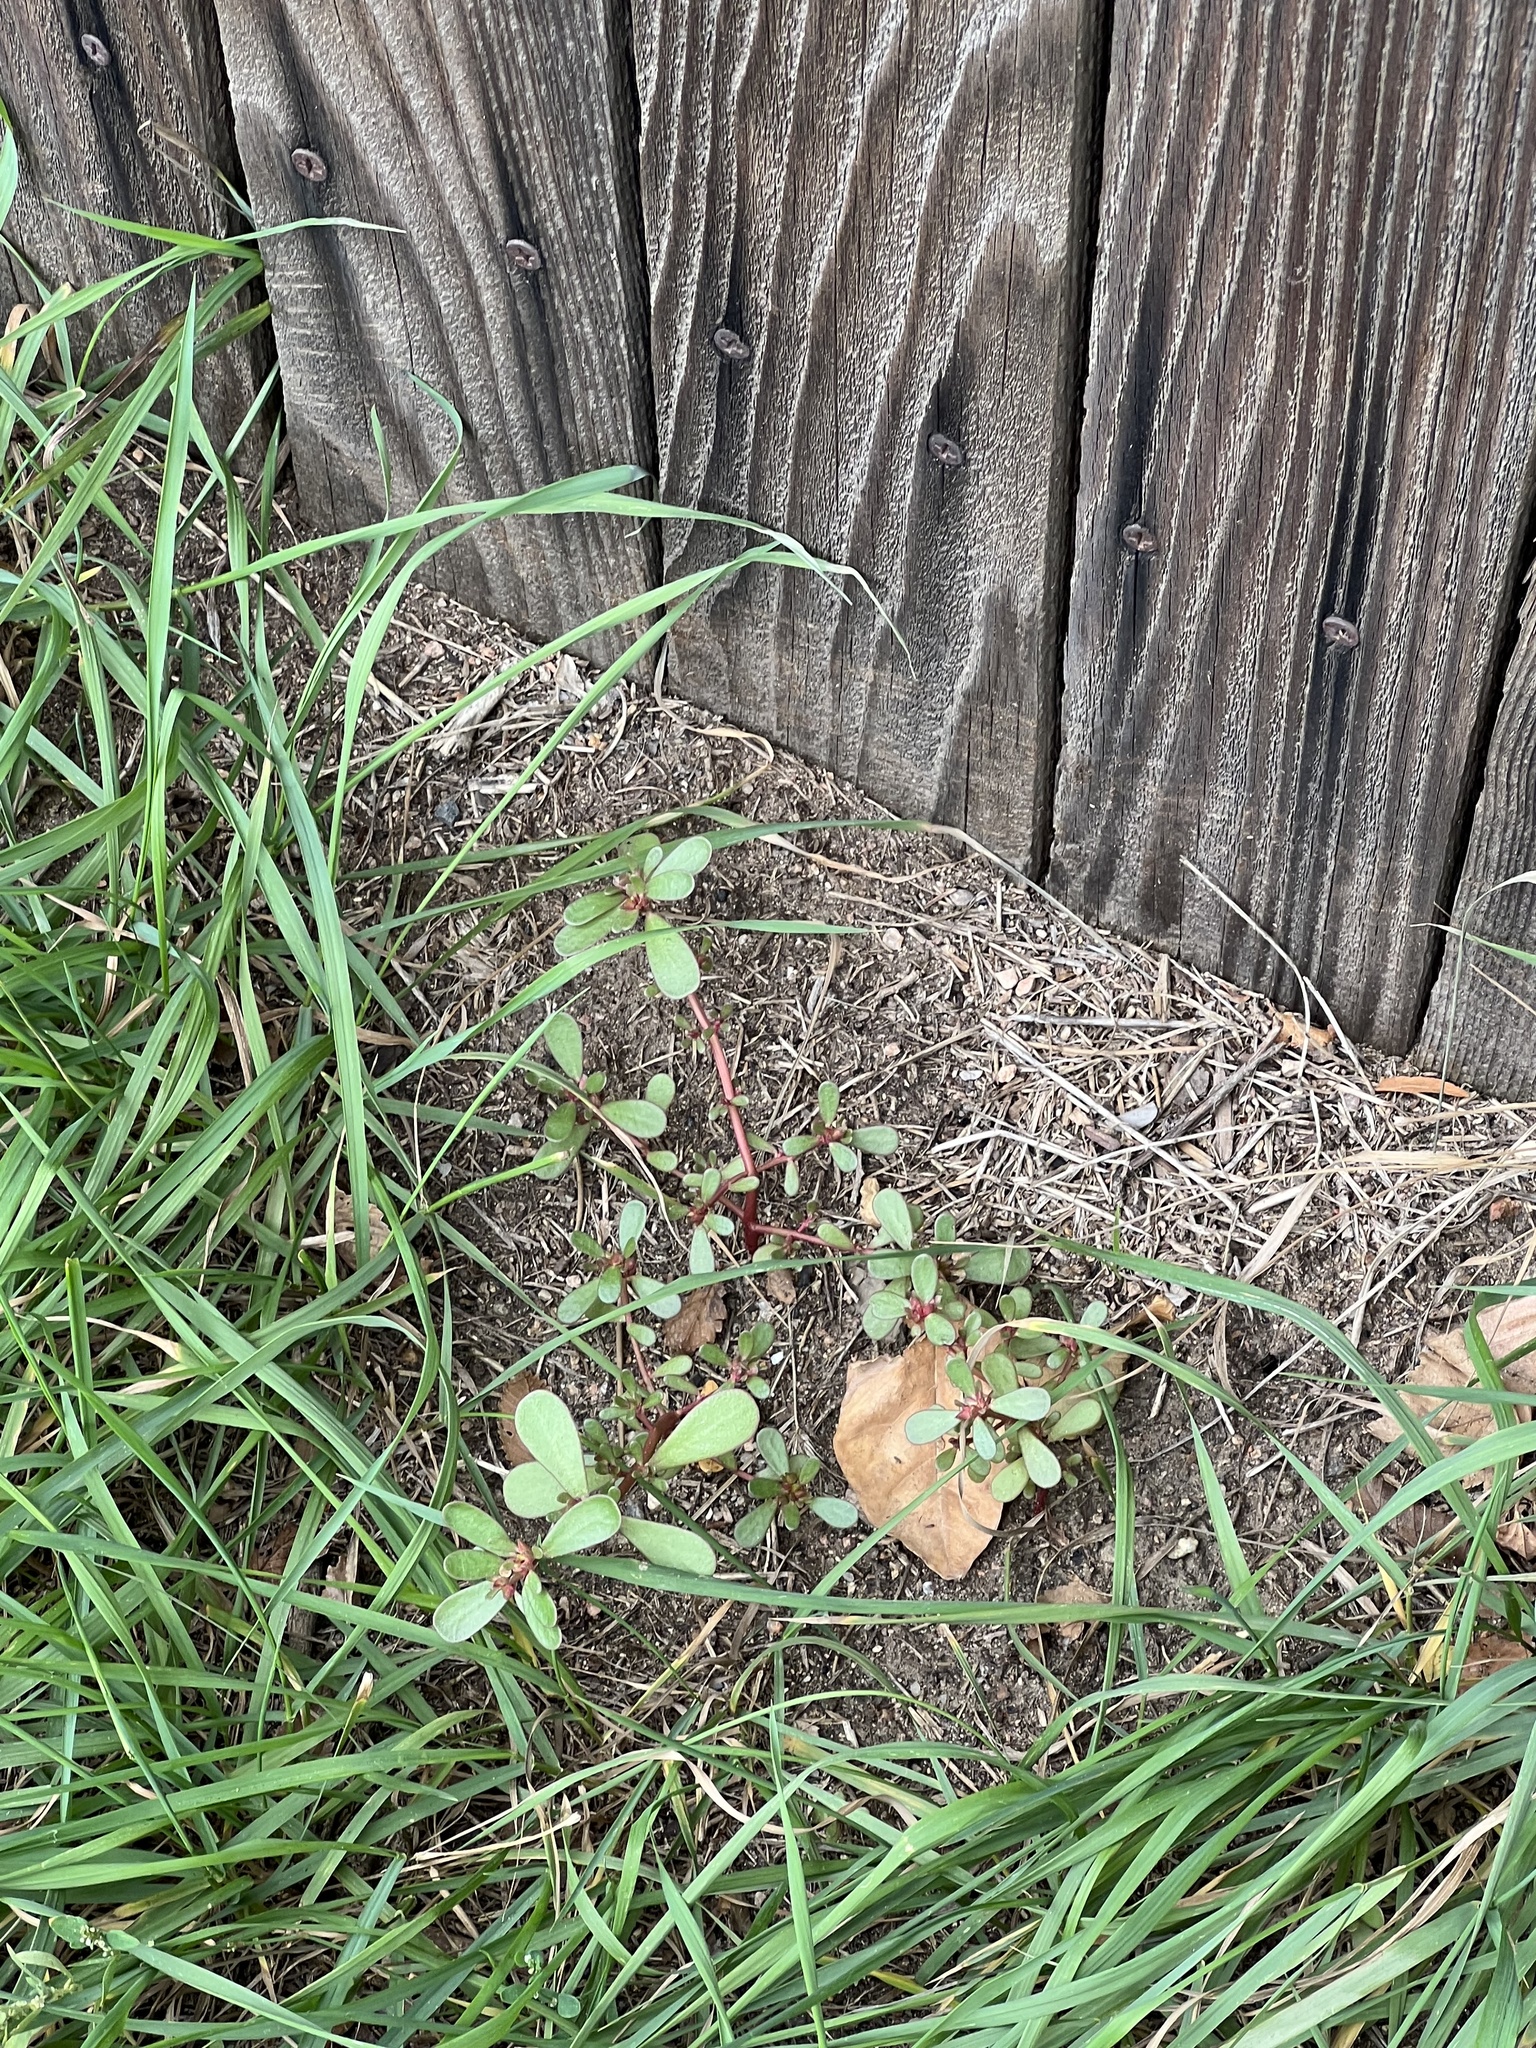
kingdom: Plantae
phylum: Tracheophyta
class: Magnoliopsida
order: Caryophyllales
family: Portulacaceae
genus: Portulaca
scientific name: Portulaca oleracea
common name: Common purslane
